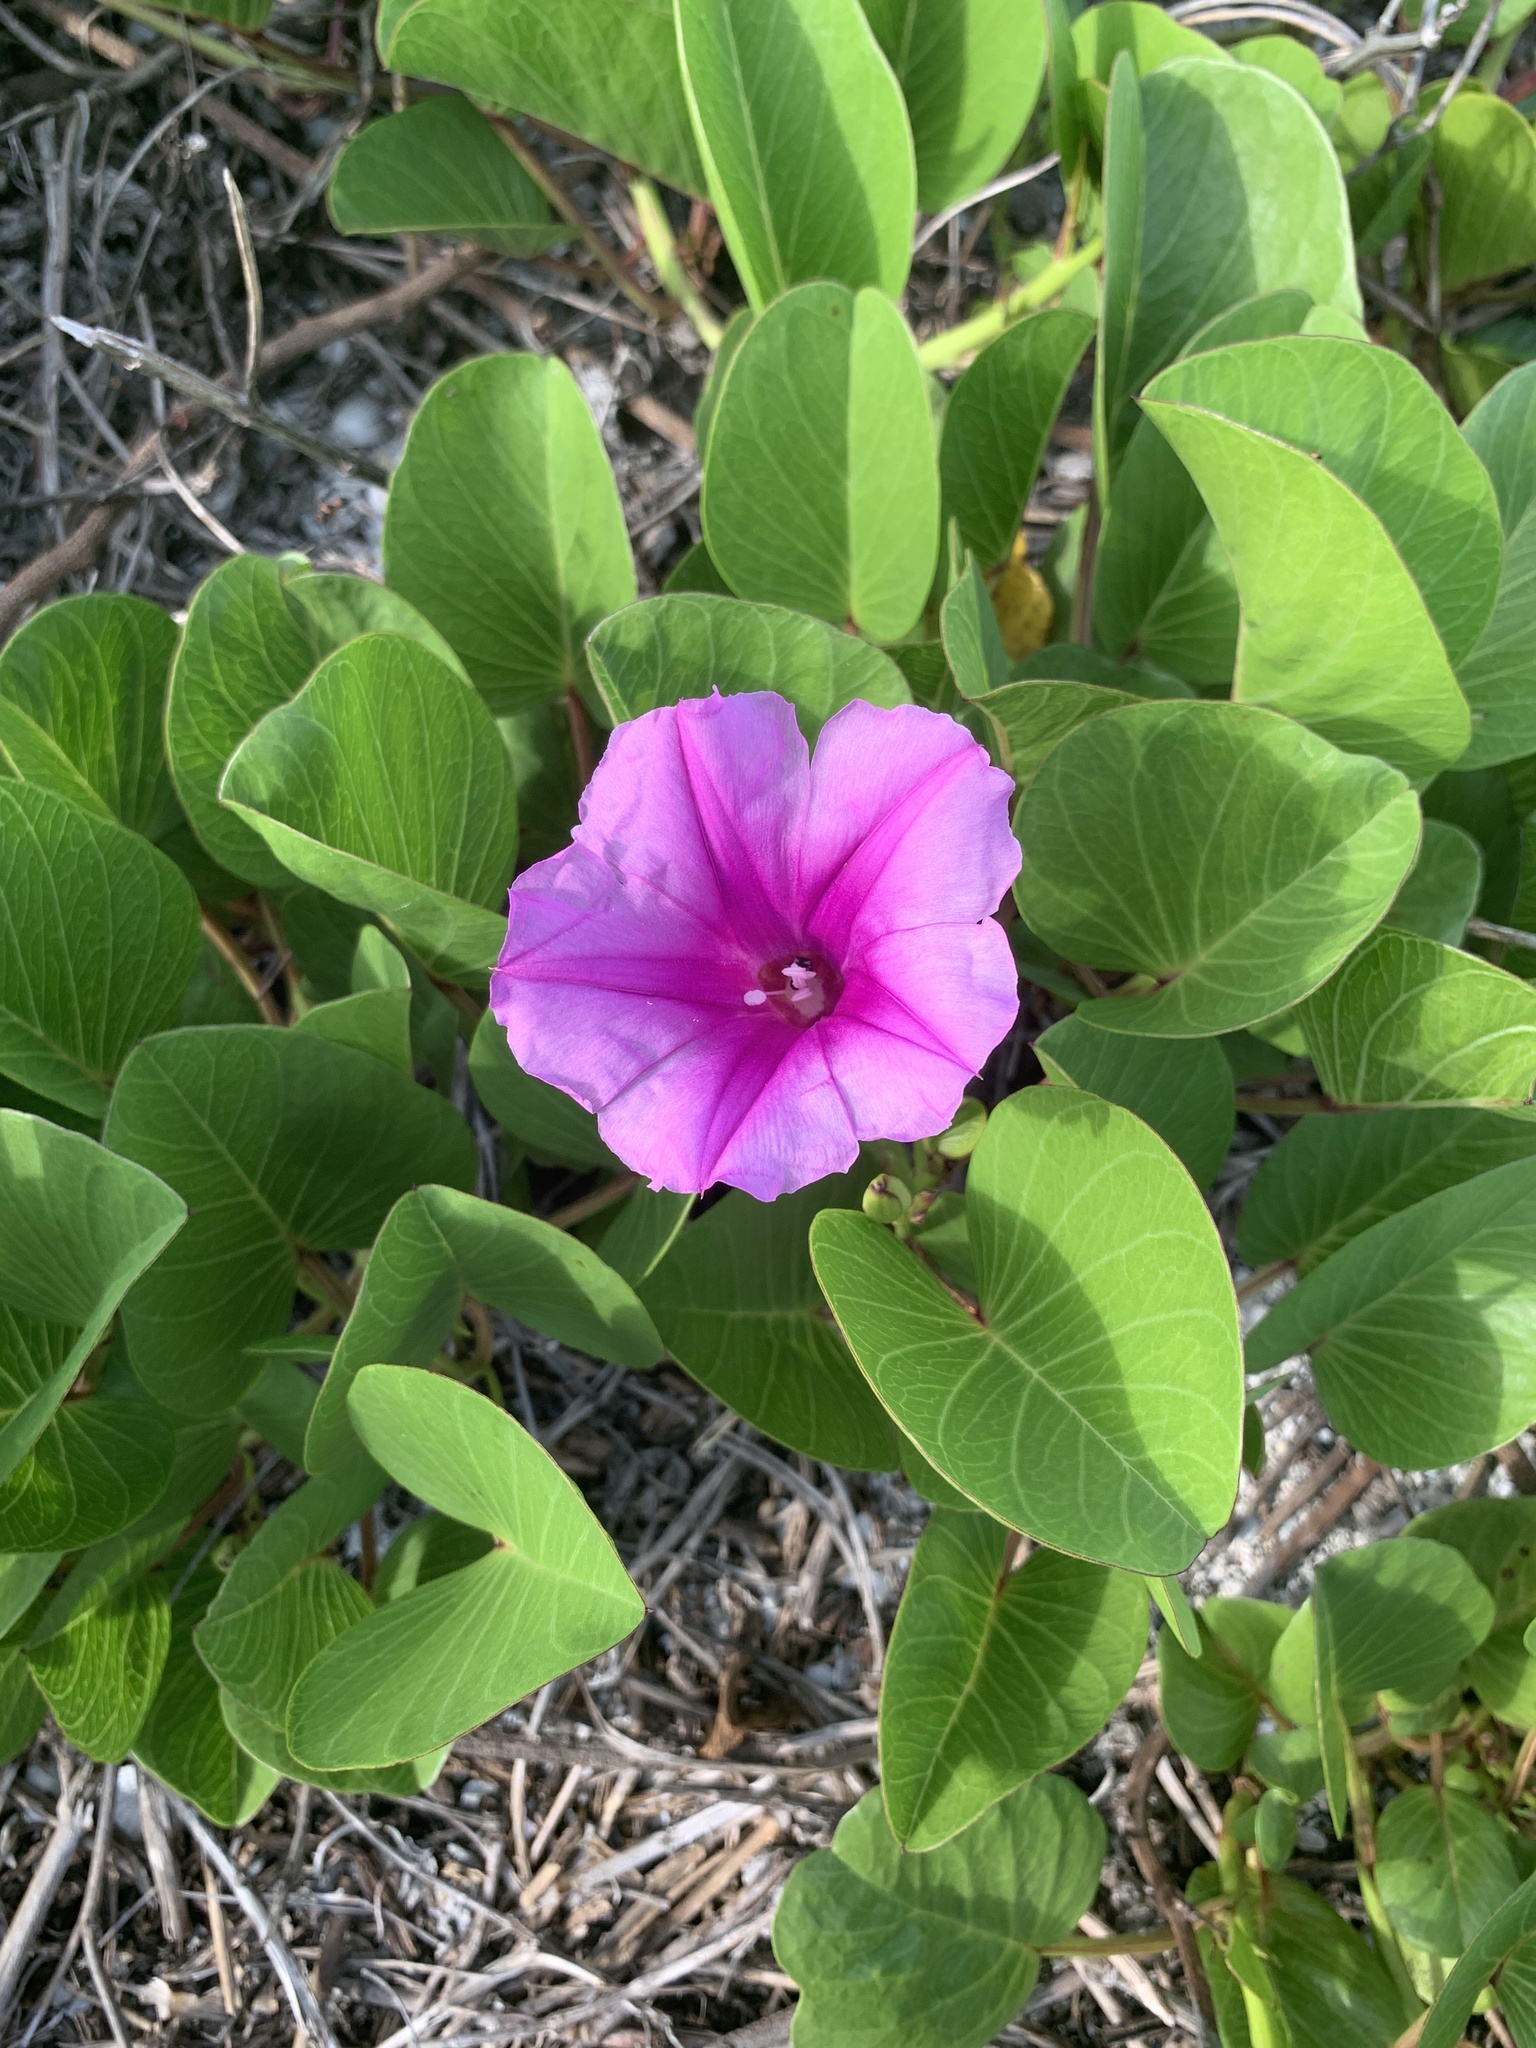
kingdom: Plantae
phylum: Tracheophyta
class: Magnoliopsida
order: Solanales
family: Convolvulaceae
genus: Ipomoea
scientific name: Ipomoea pes-caprae
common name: Beach morning glory
